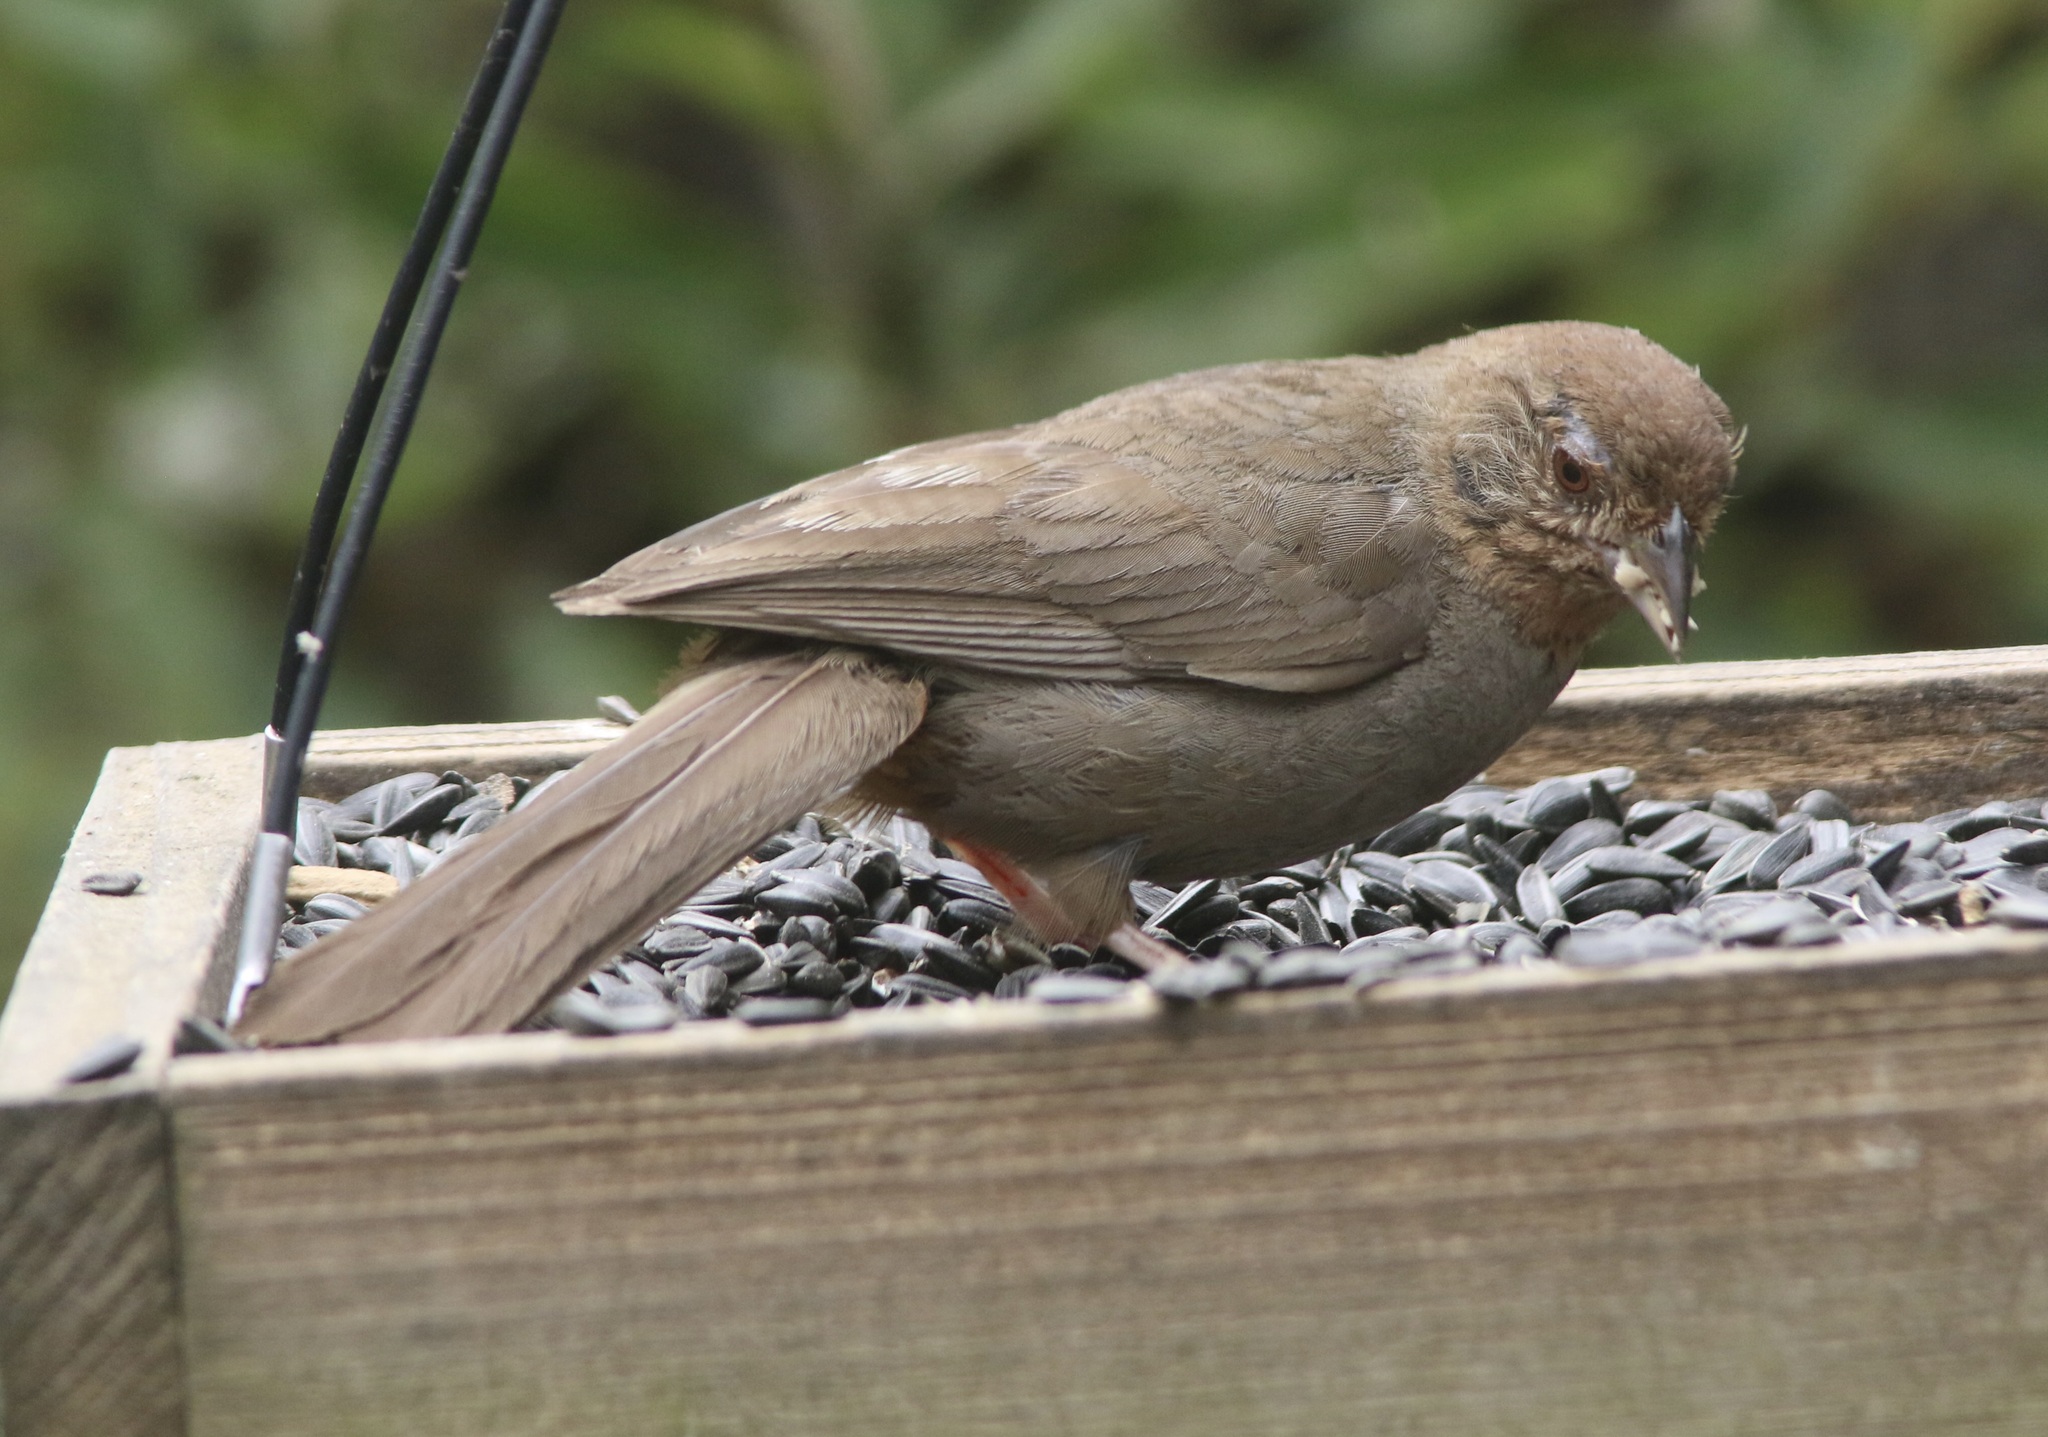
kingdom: Animalia
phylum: Chordata
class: Aves
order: Passeriformes
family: Passerellidae
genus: Melozone
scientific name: Melozone crissalis
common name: California towhee
